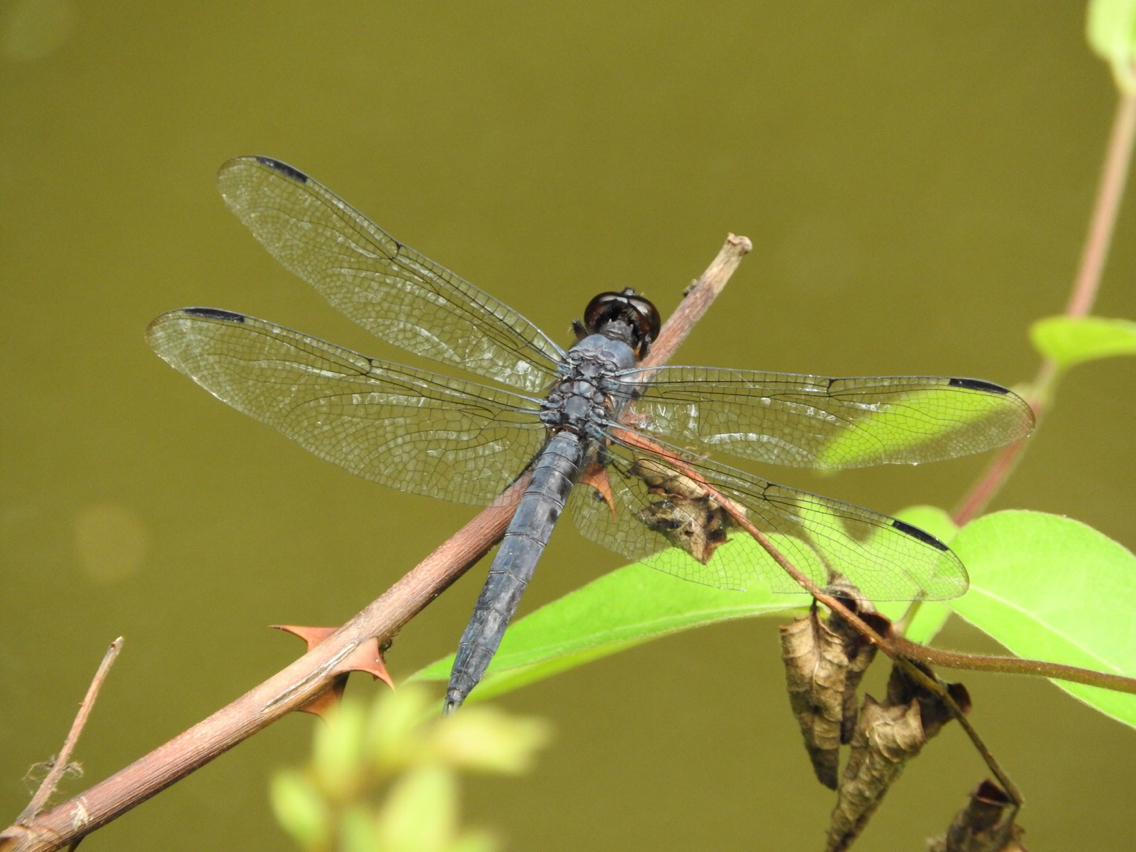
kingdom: Animalia
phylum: Arthropoda
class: Insecta
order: Odonata
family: Libellulidae
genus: Libellula
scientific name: Libellula incesta
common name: Slaty skimmer
